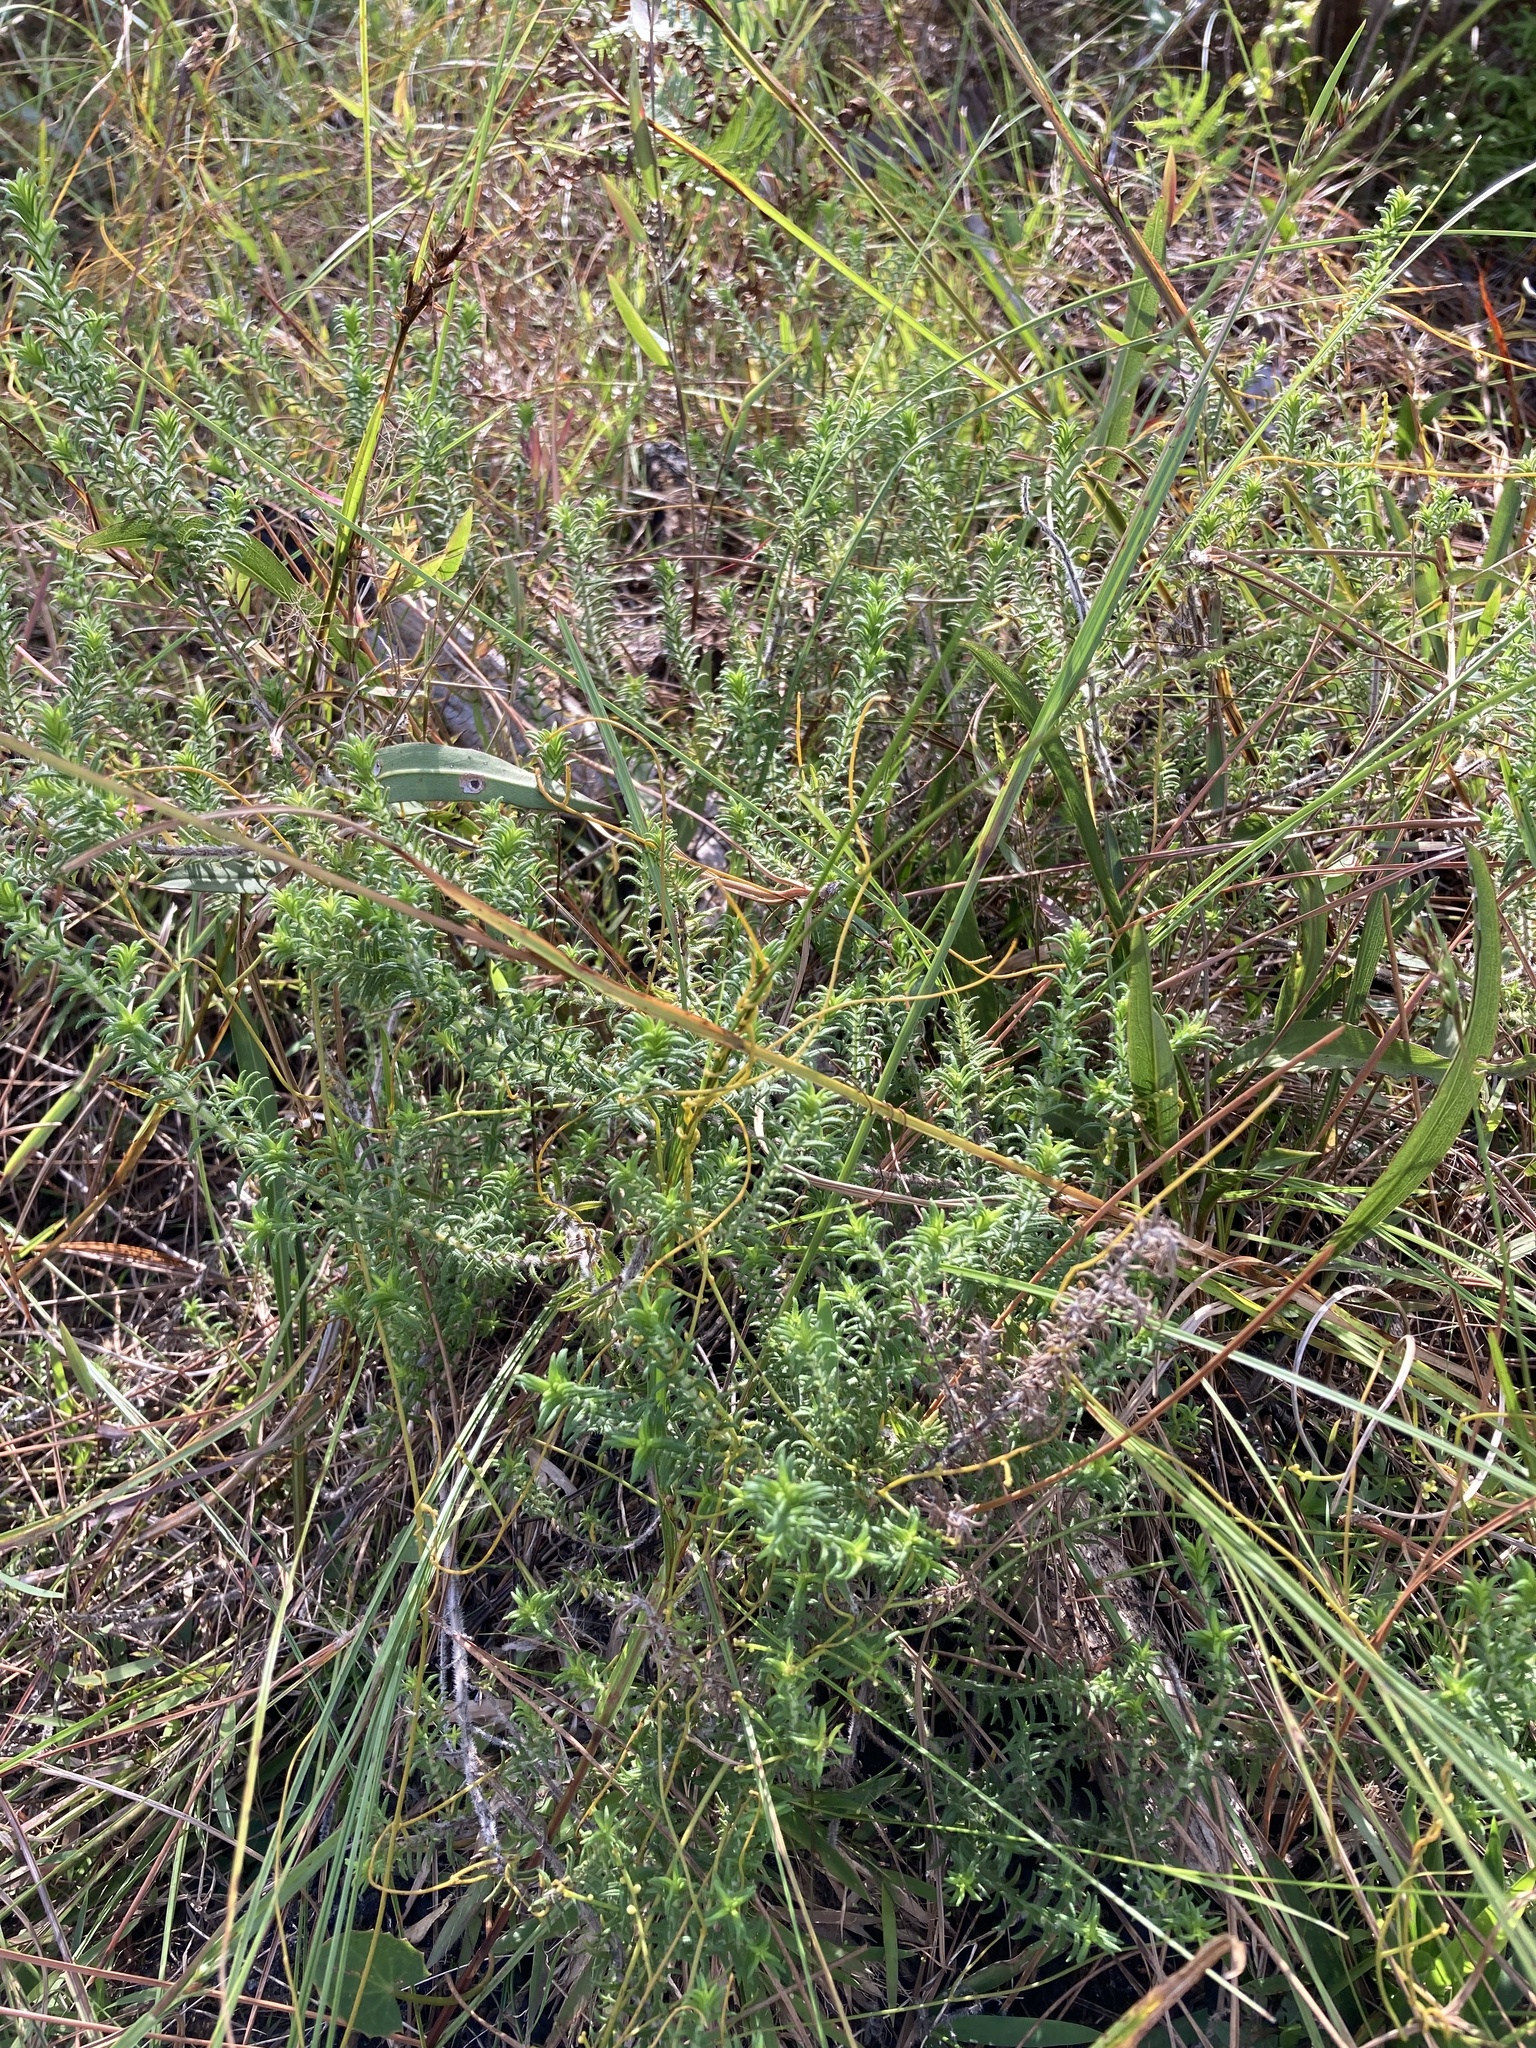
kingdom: Plantae
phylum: Tracheophyta
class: Magnoliopsida
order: Lamiales
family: Lamiaceae
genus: Piloblephis
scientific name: Piloblephis rigida
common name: Wild pennyroyal
